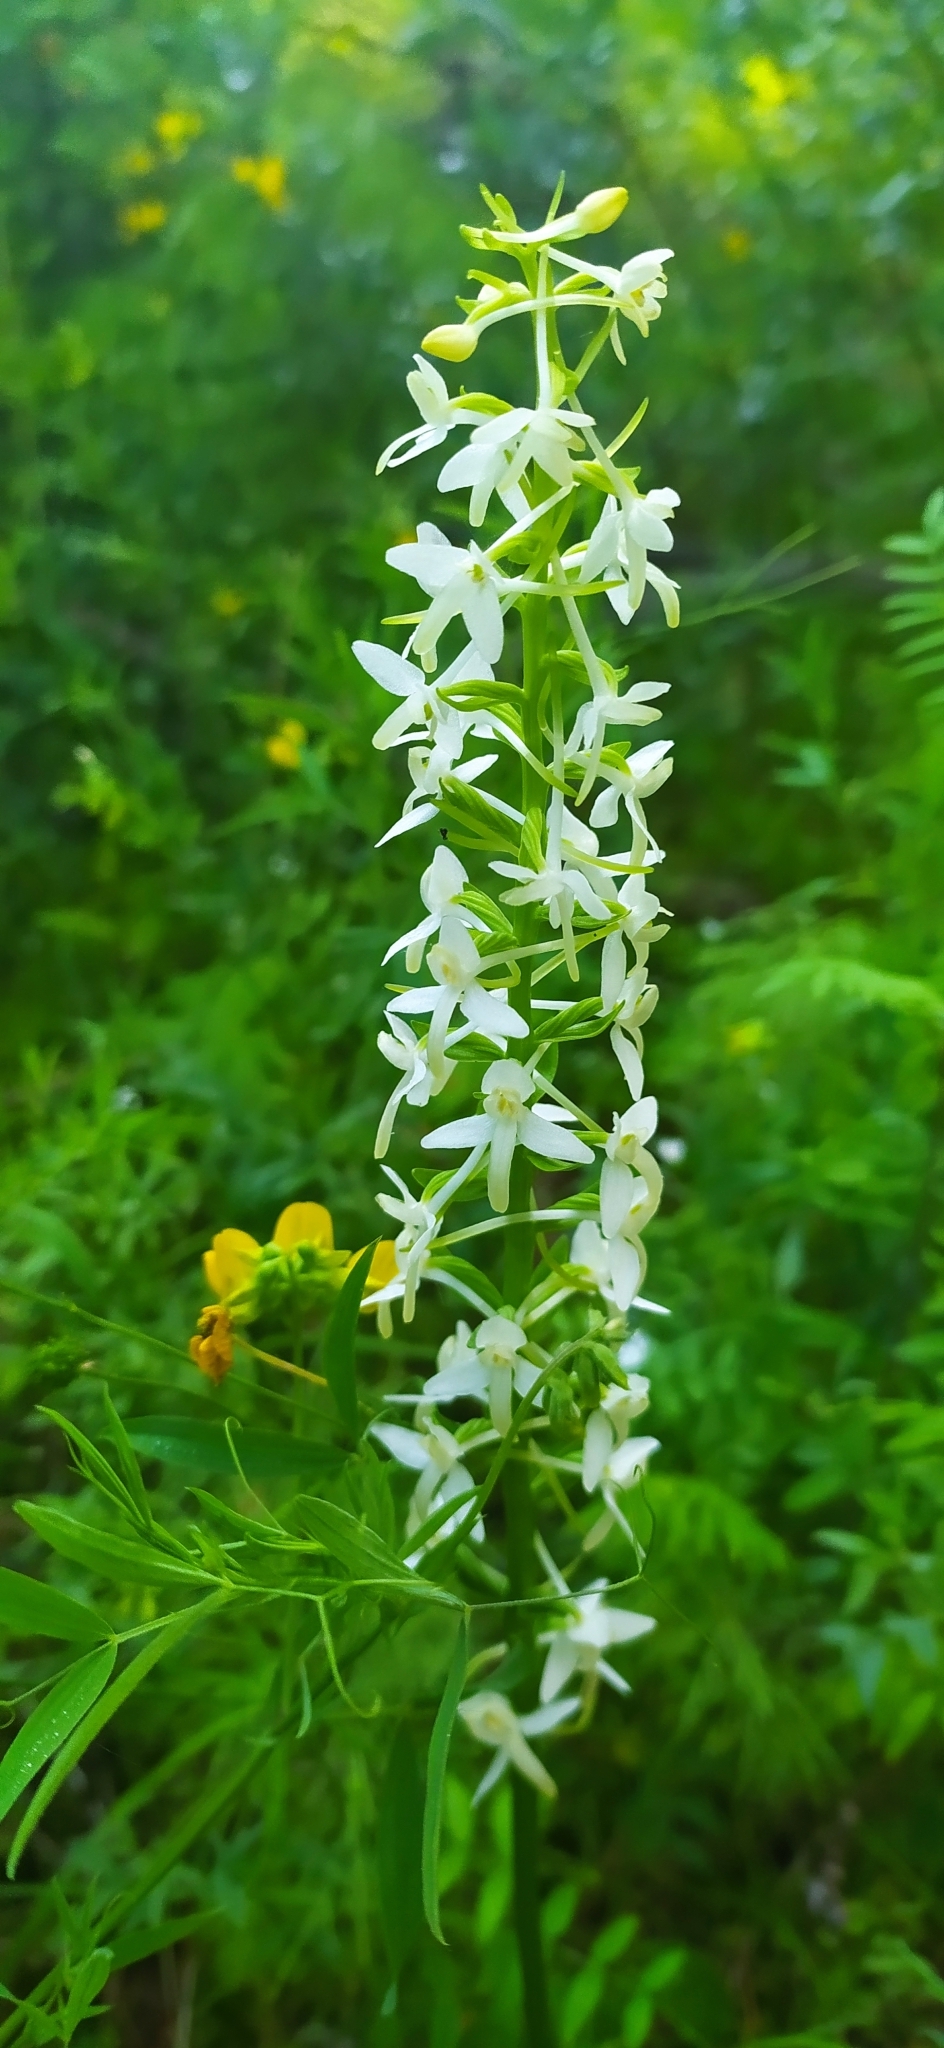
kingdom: Plantae
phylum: Tracheophyta
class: Liliopsida
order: Asparagales
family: Orchidaceae
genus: Platanthera
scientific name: Platanthera bifolia
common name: Lesser butterfly-orchid
